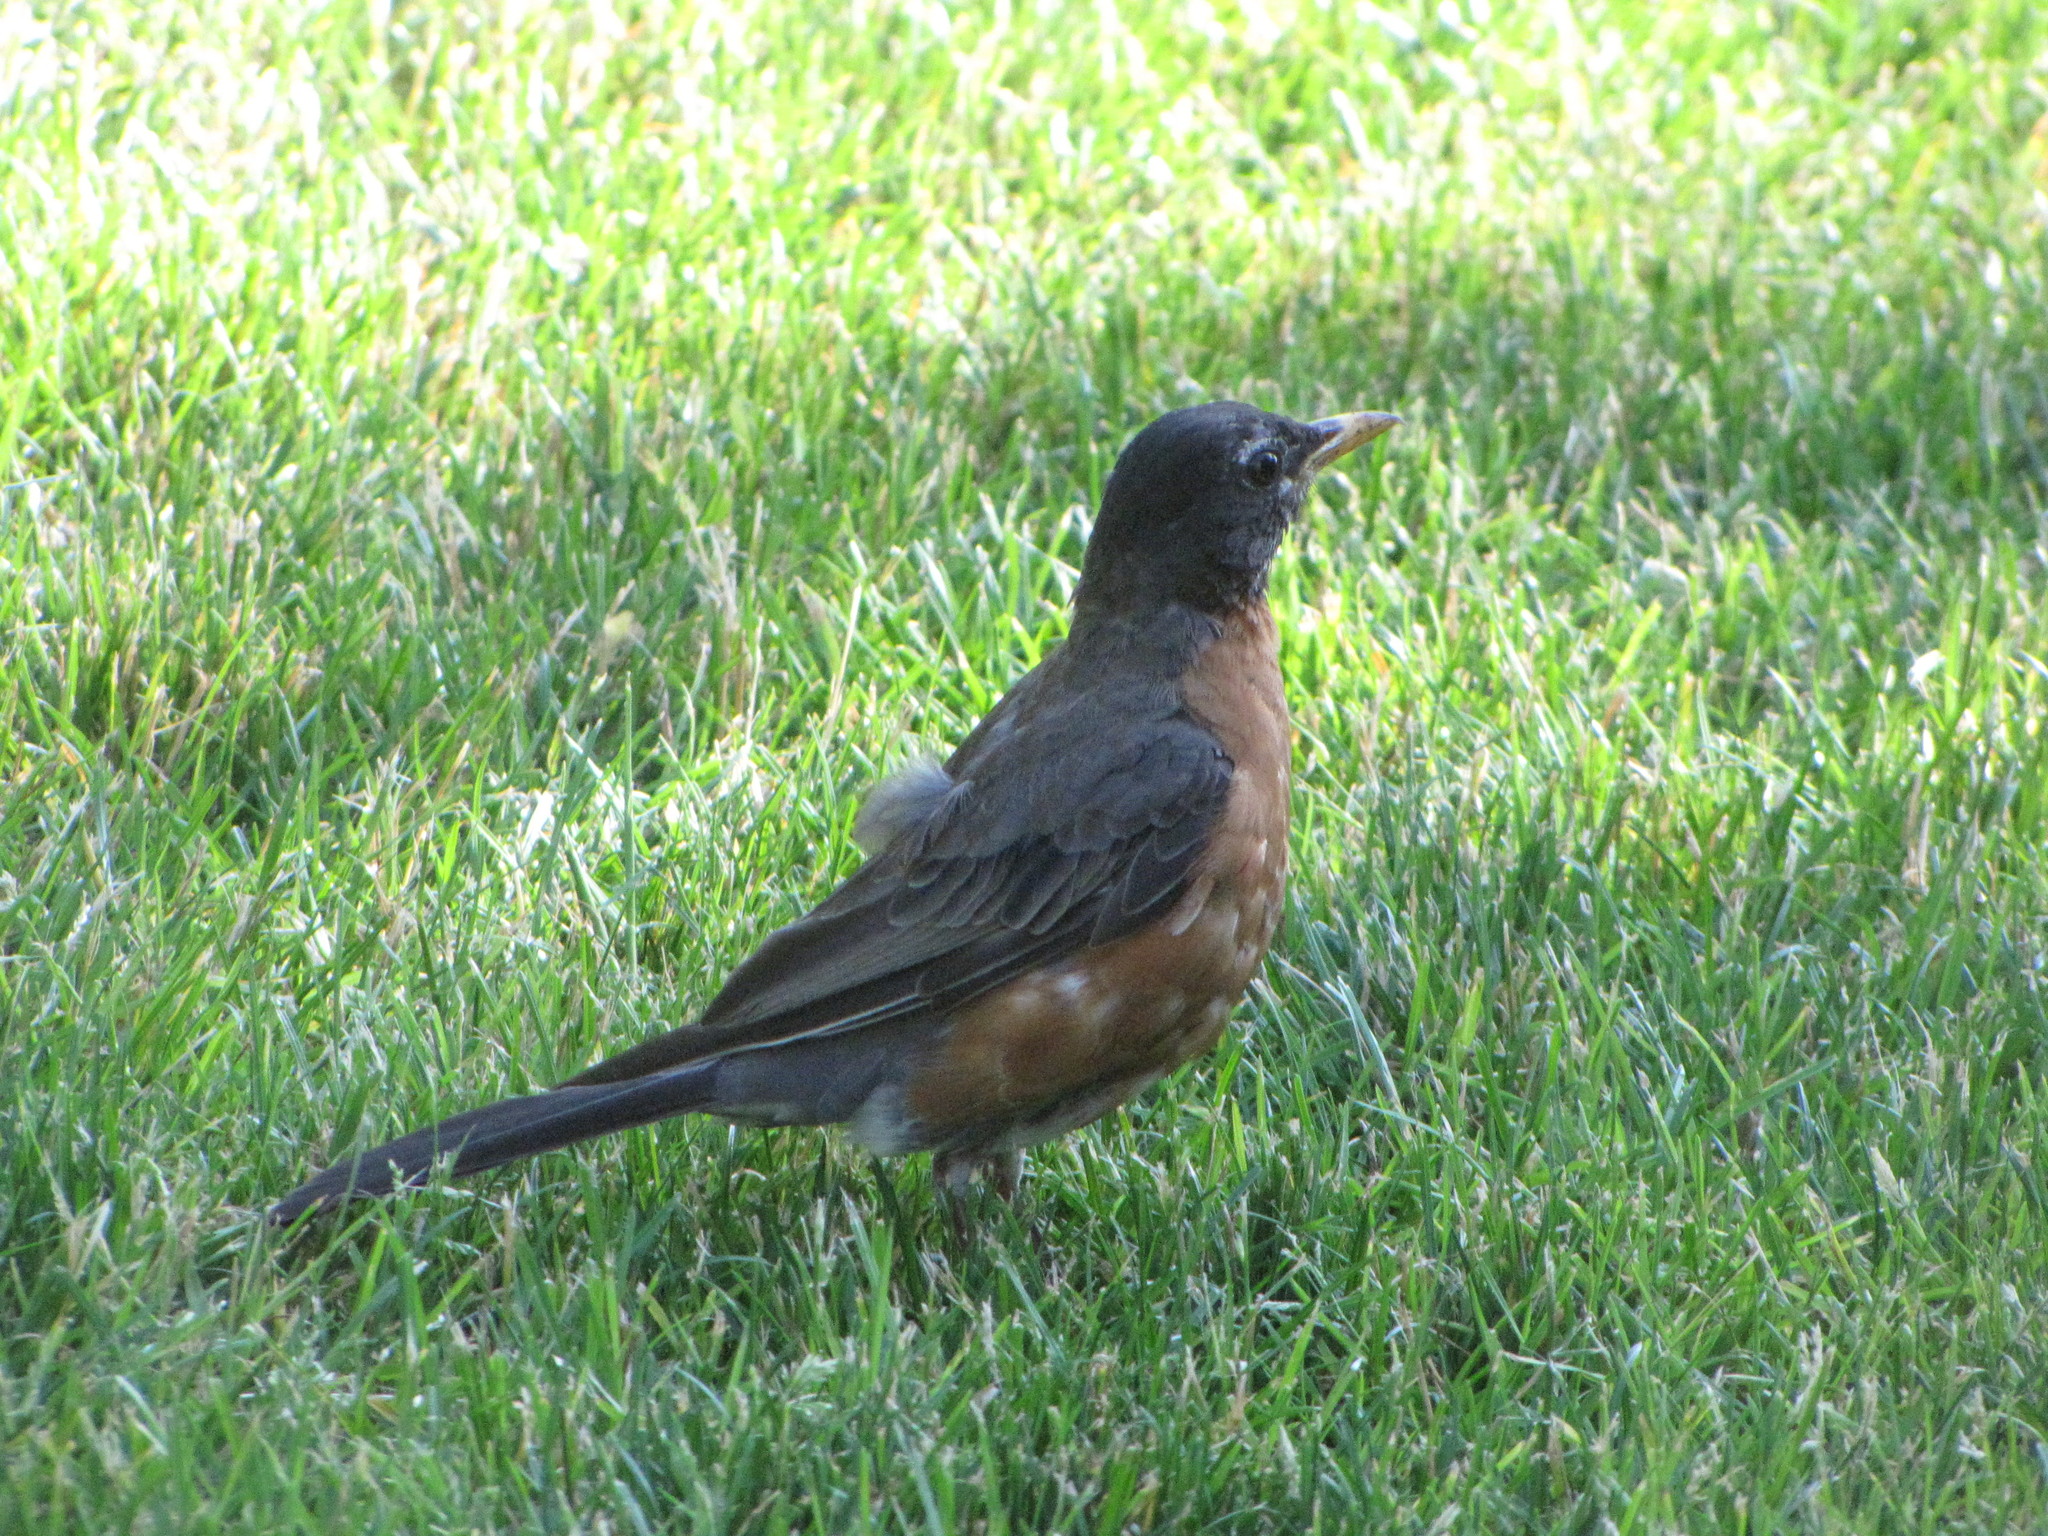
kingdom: Animalia
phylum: Chordata
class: Aves
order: Passeriformes
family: Turdidae
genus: Turdus
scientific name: Turdus migratorius
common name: American robin
